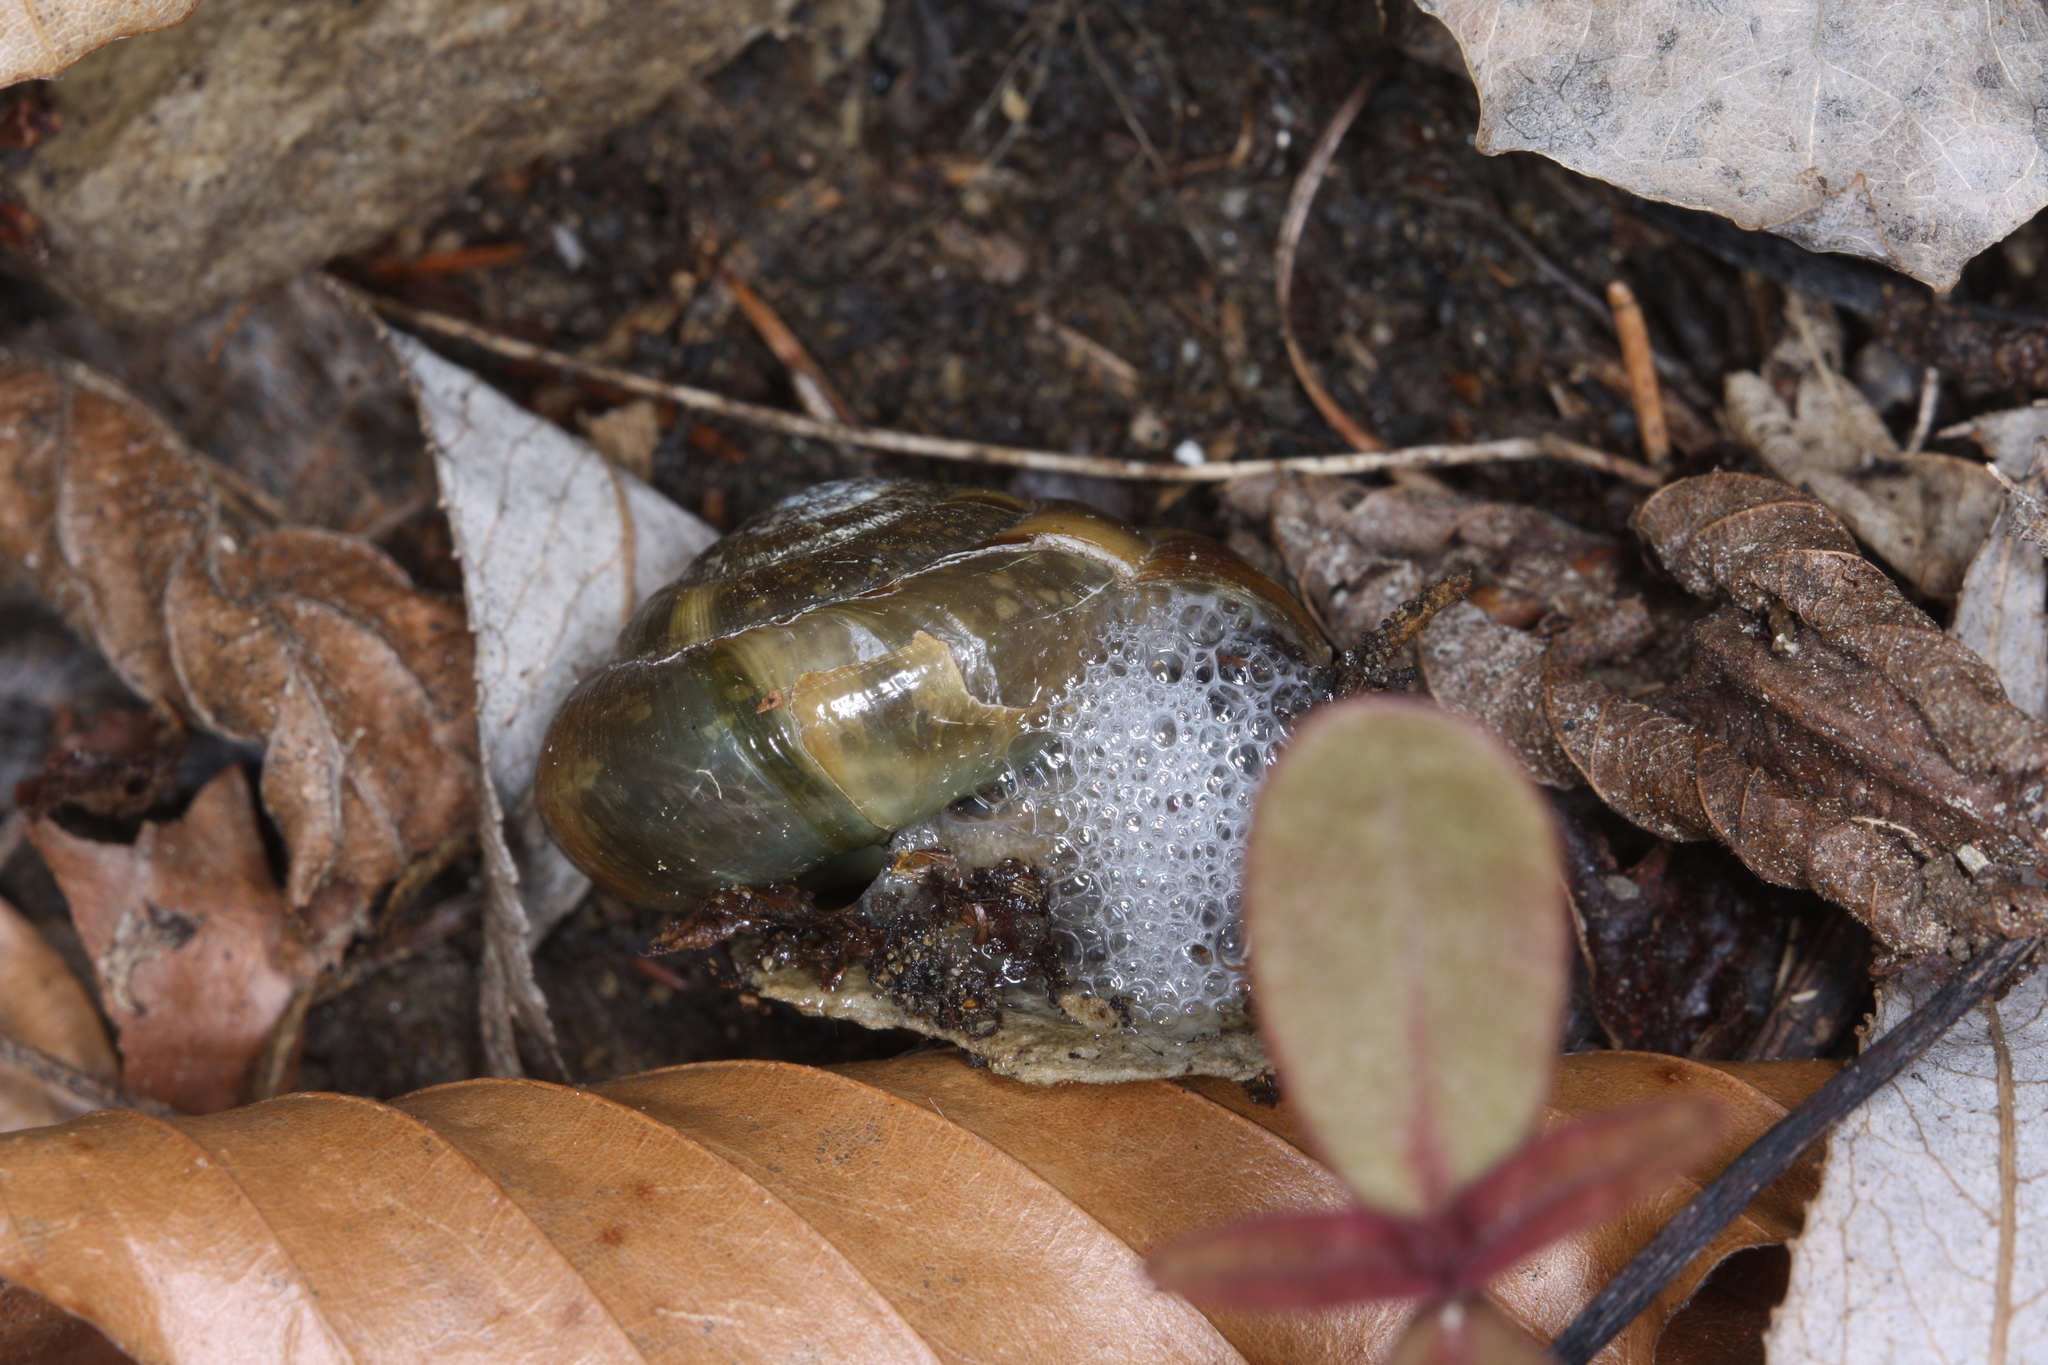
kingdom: Animalia
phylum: Mollusca
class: Gastropoda
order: Stylommatophora
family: Zonitidae
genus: Aegopis
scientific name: Aegopis verticillus
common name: Giant glass snail
